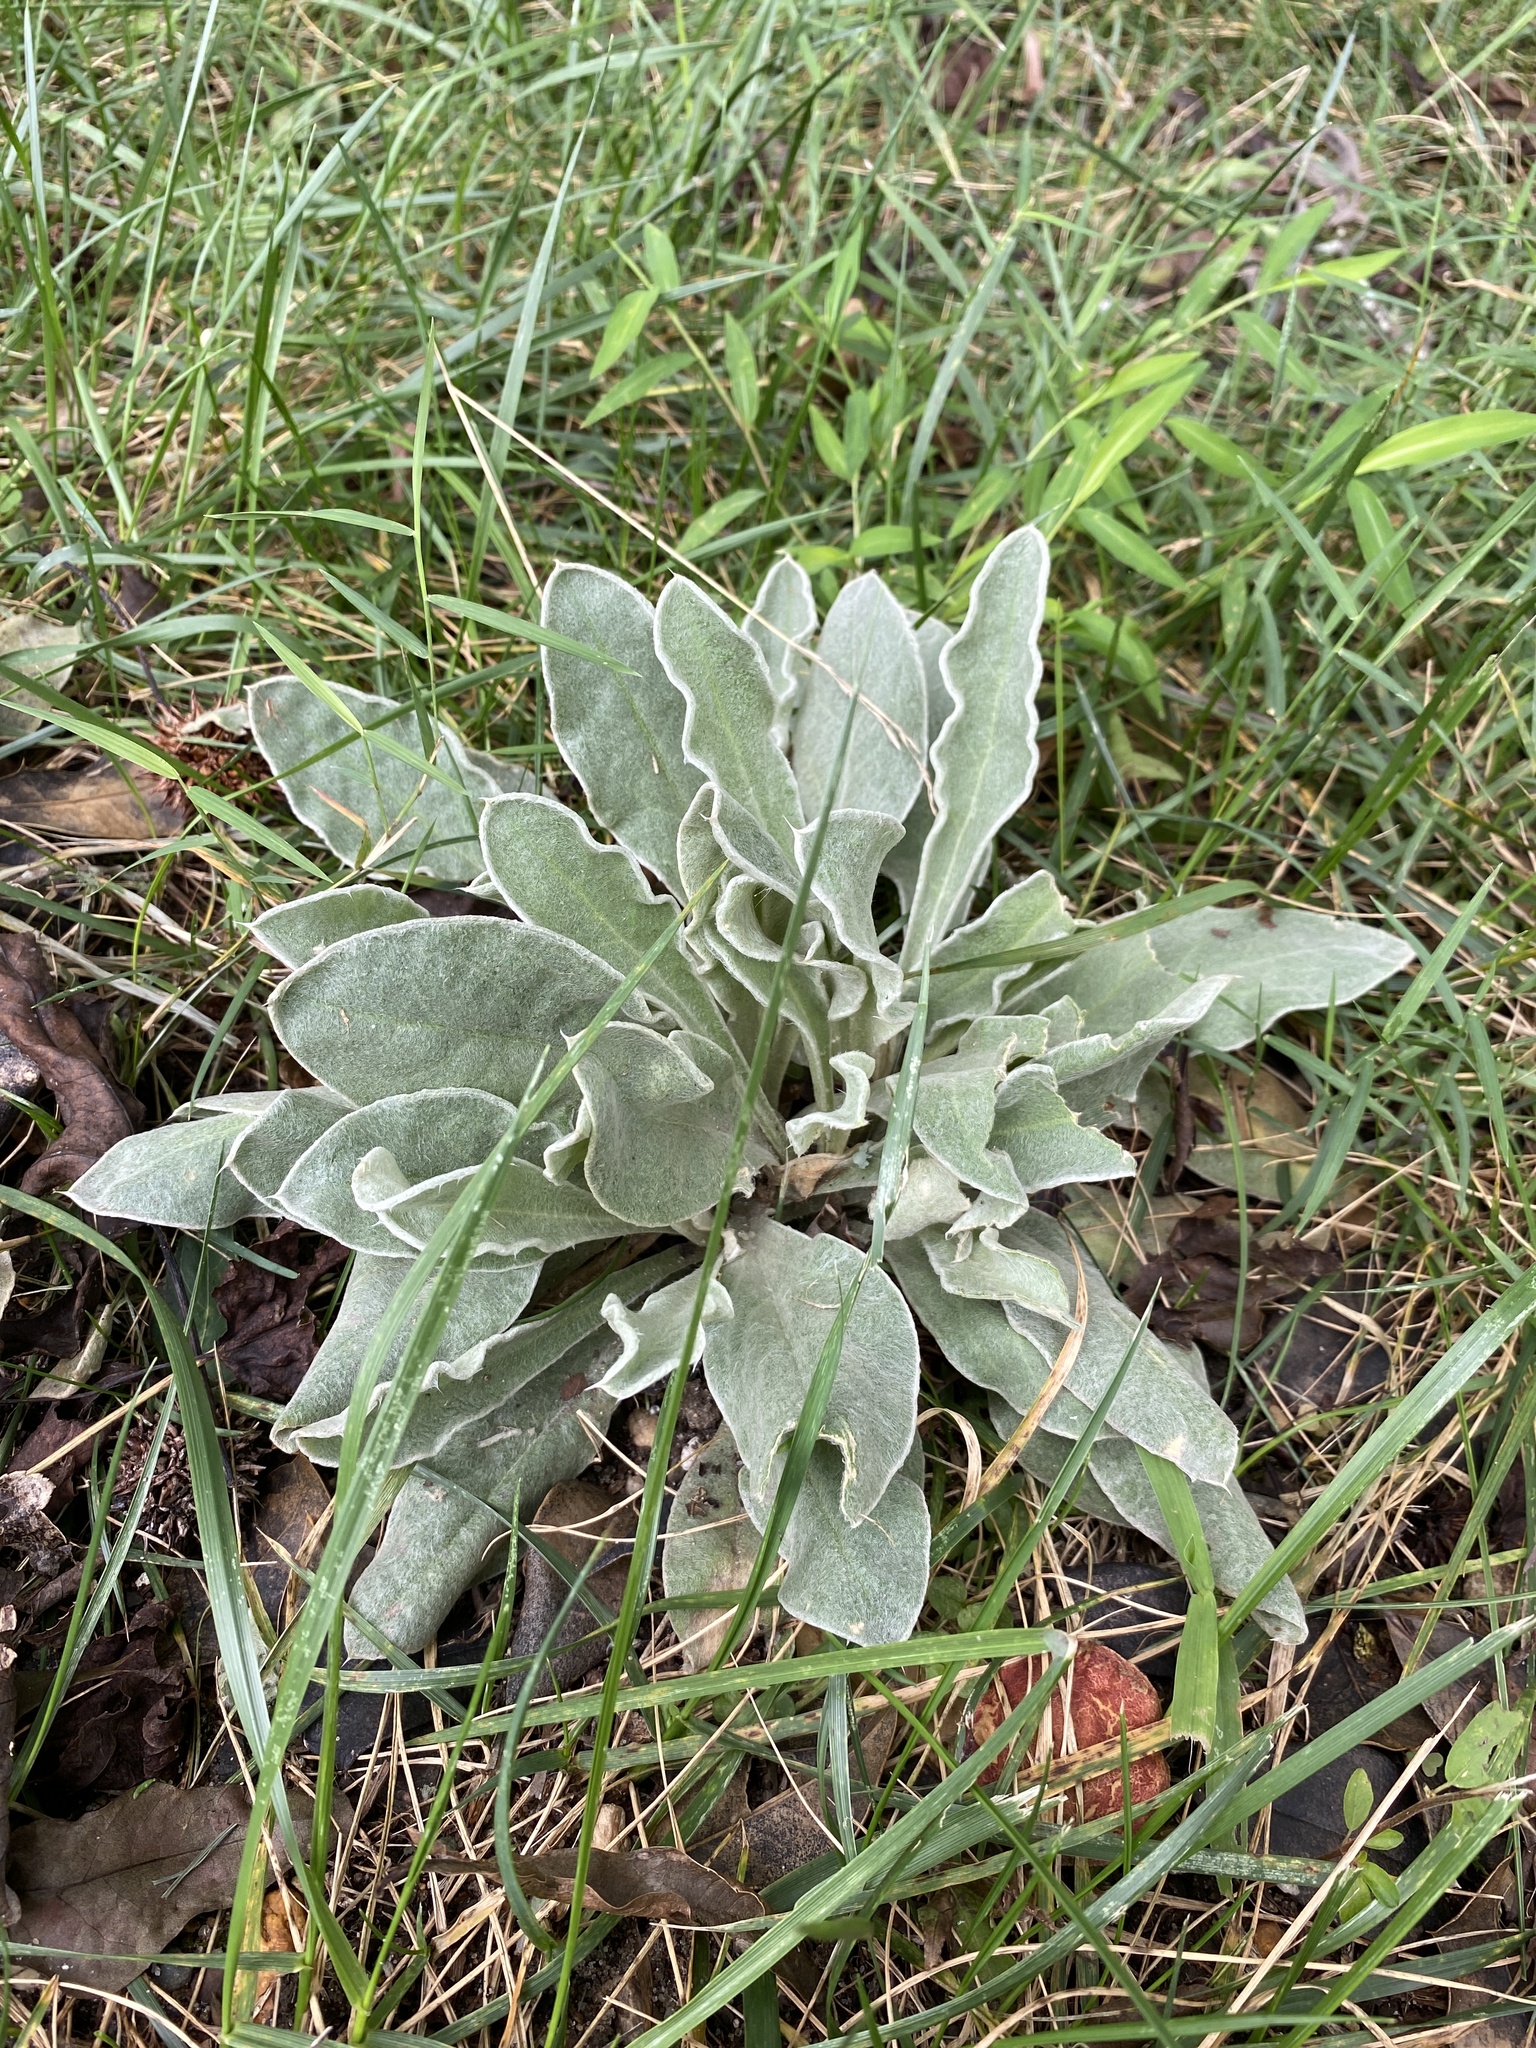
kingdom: Plantae
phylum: Tracheophyta
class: Magnoliopsida
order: Caryophyllales
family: Caryophyllaceae
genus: Silene
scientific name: Silene coronaria
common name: Rose campion
